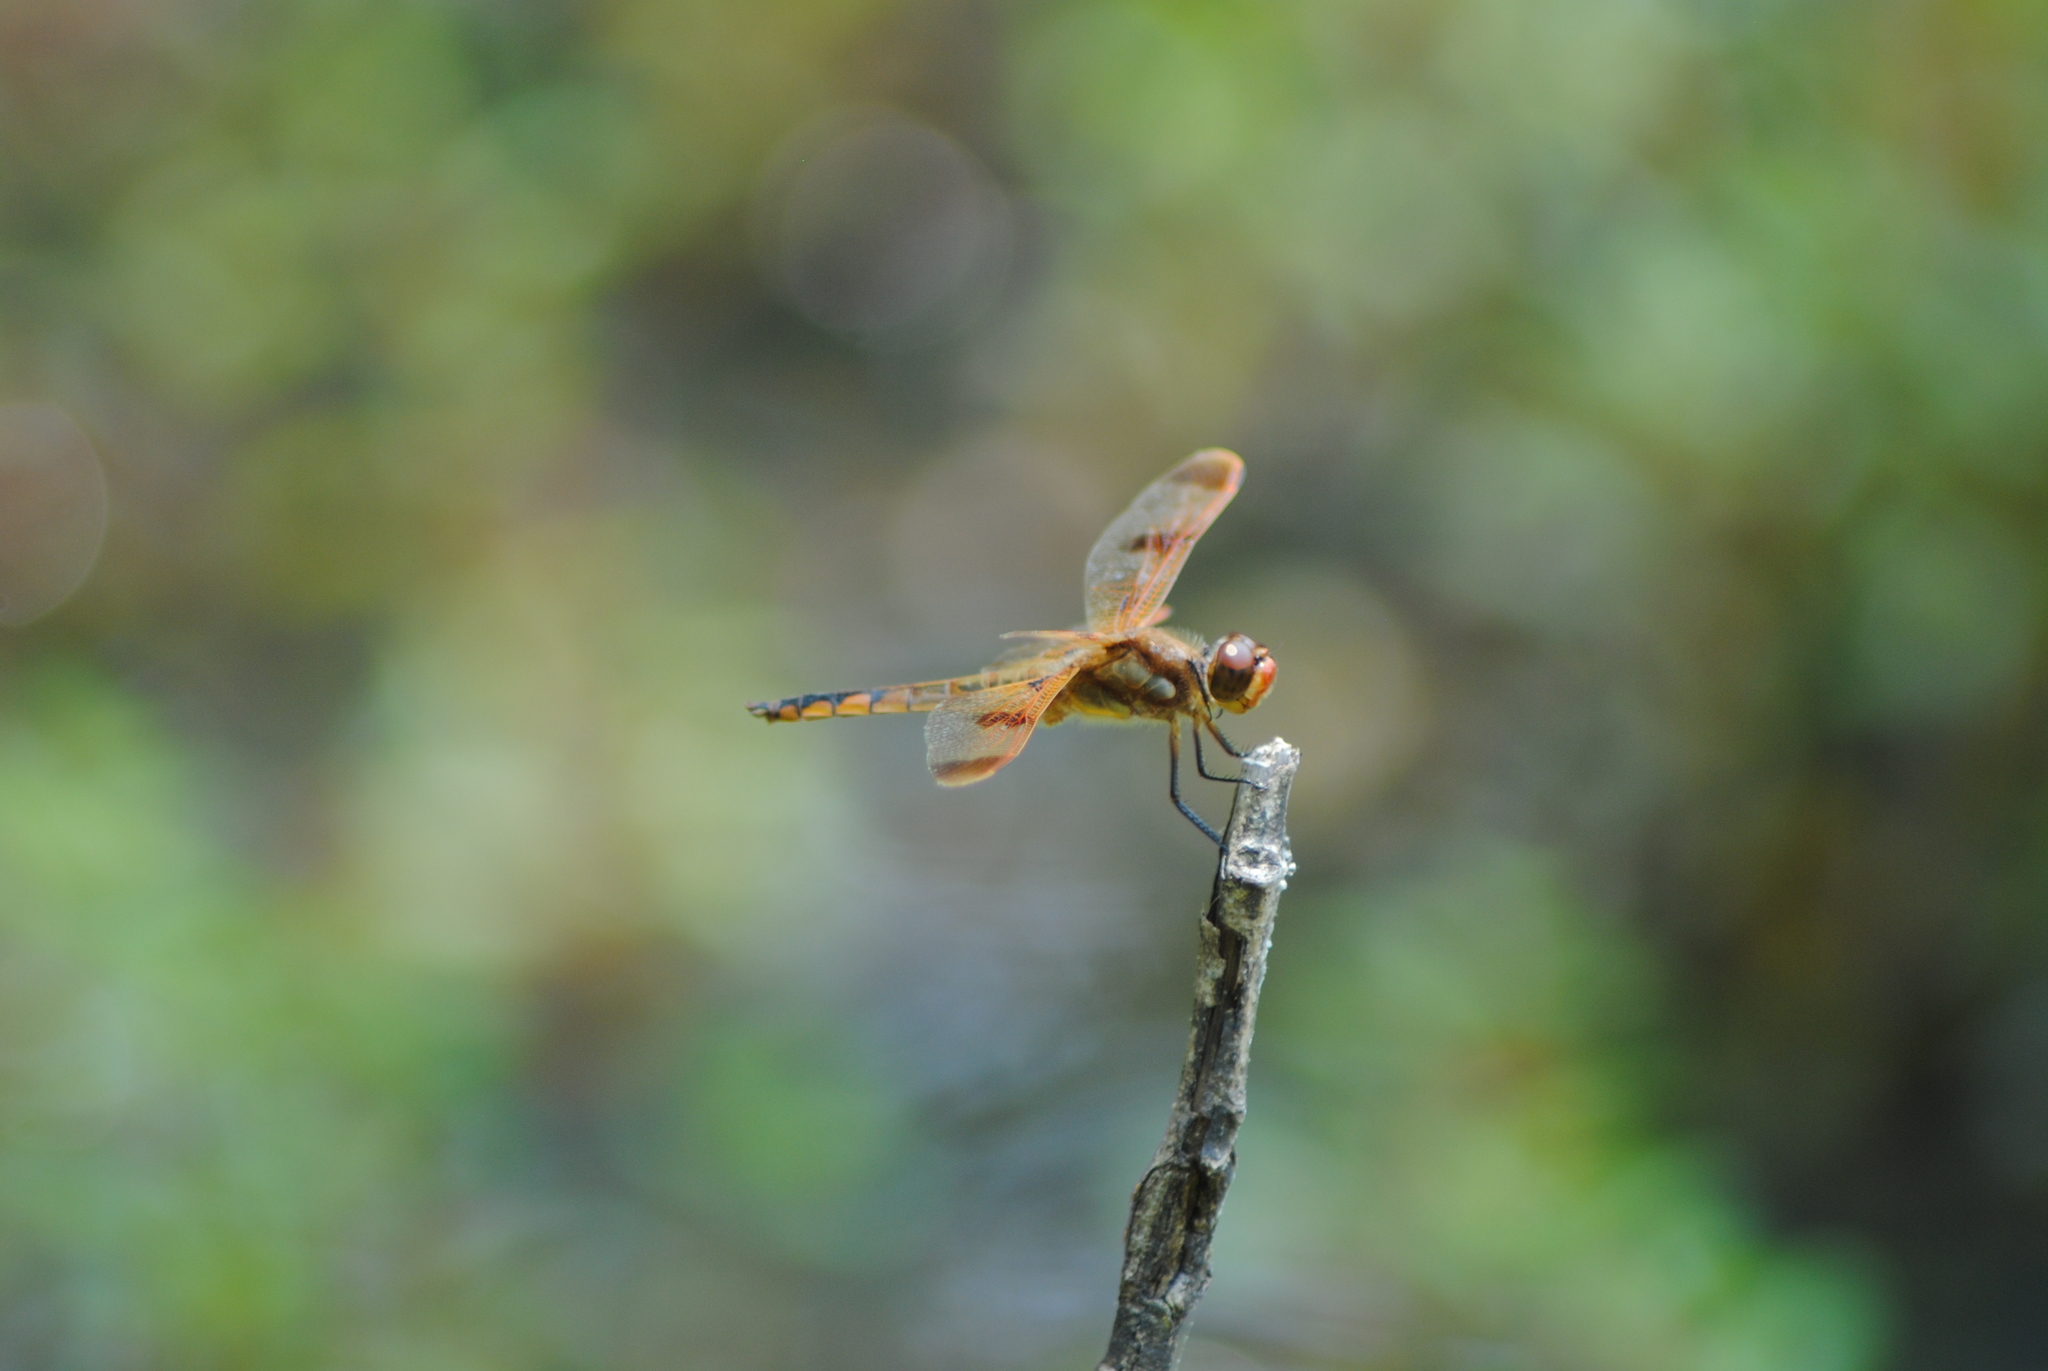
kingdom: Animalia
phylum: Arthropoda
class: Insecta
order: Odonata
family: Libellulidae
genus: Libellula
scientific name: Libellula semifasciata
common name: Painted skimmer
